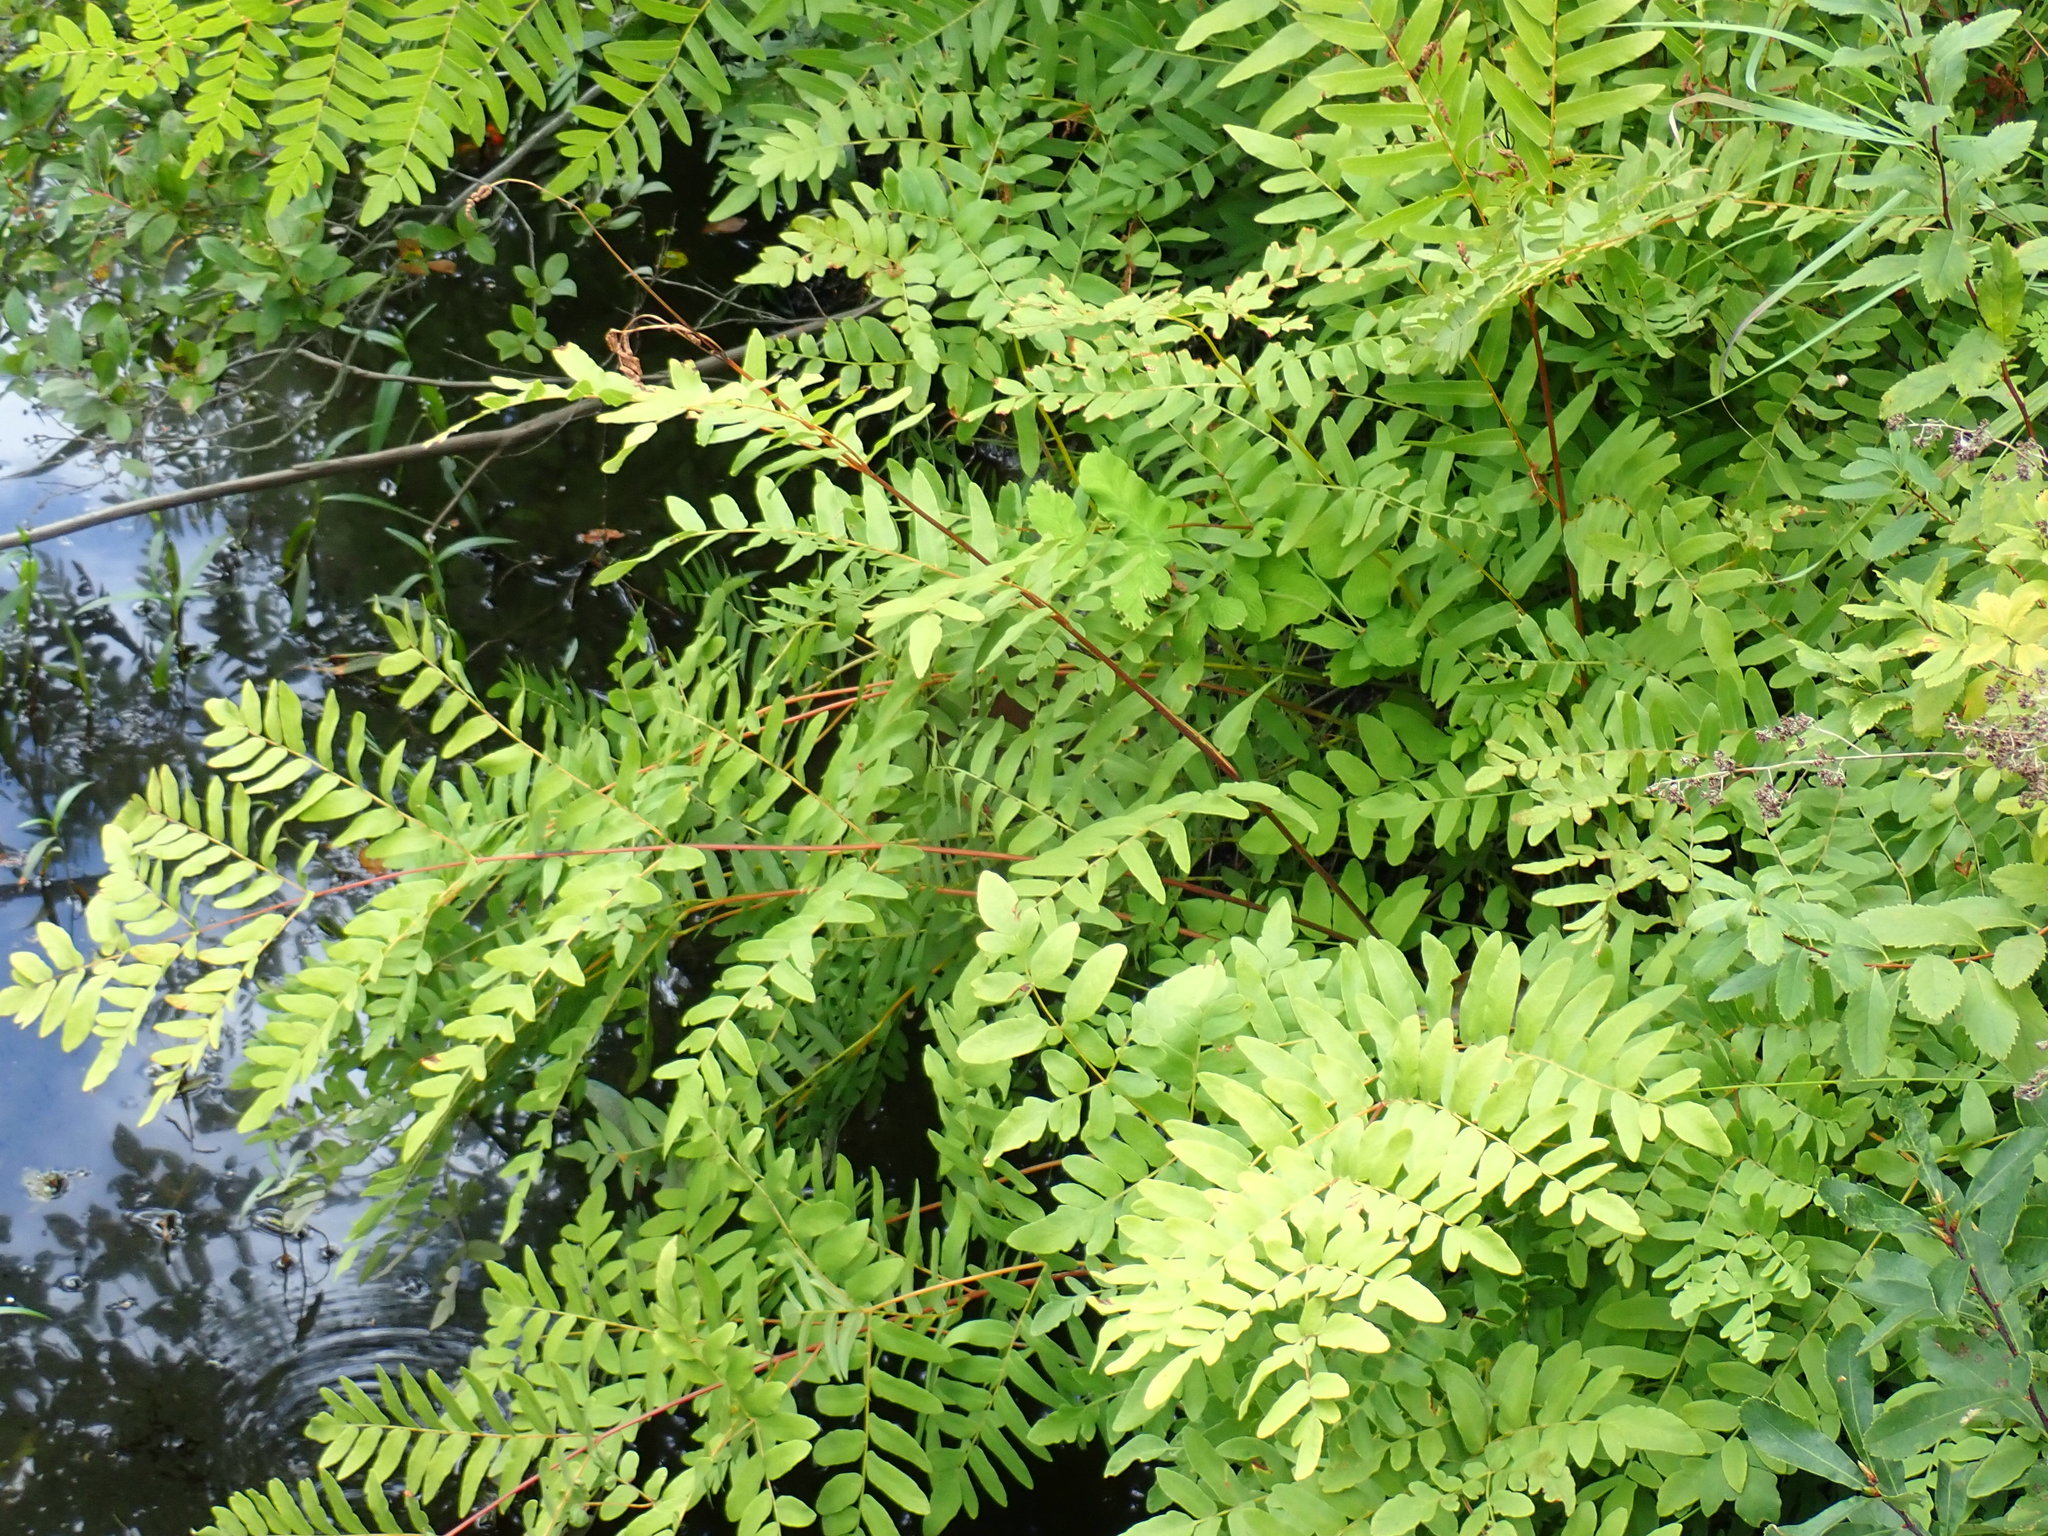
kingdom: Plantae
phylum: Tracheophyta
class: Polypodiopsida
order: Osmundales
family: Osmundaceae
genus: Osmunda
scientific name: Osmunda spectabilis
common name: American royal fern
